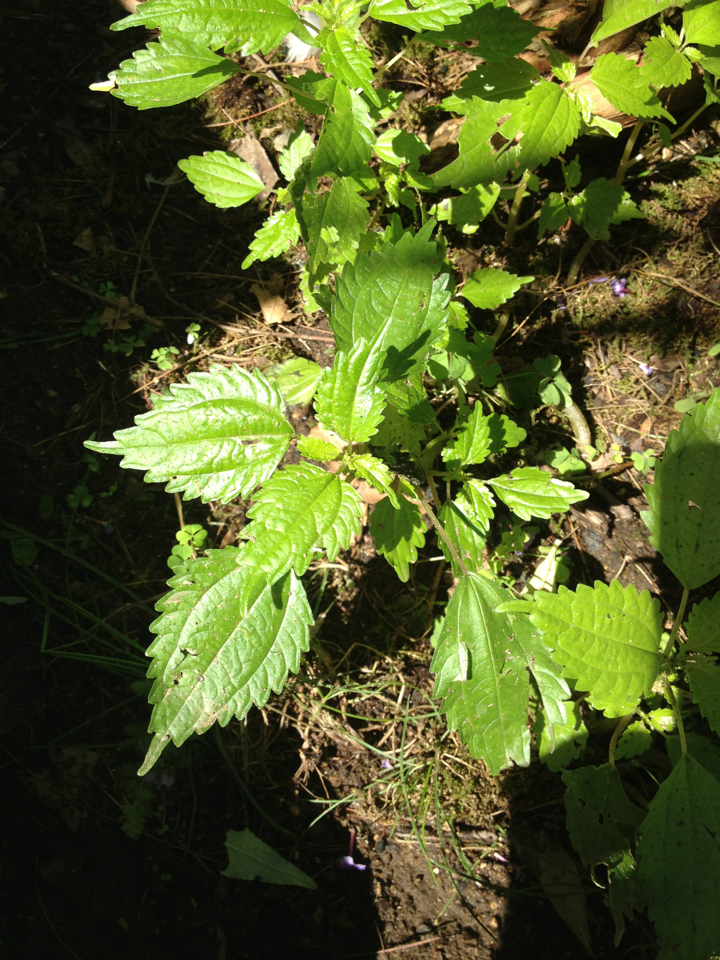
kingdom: Plantae
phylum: Tracheophyta
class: Magnoliopsida
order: Rosales
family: Urticaceae
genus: Pilea
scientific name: Pilea pumila
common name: Clearweed
